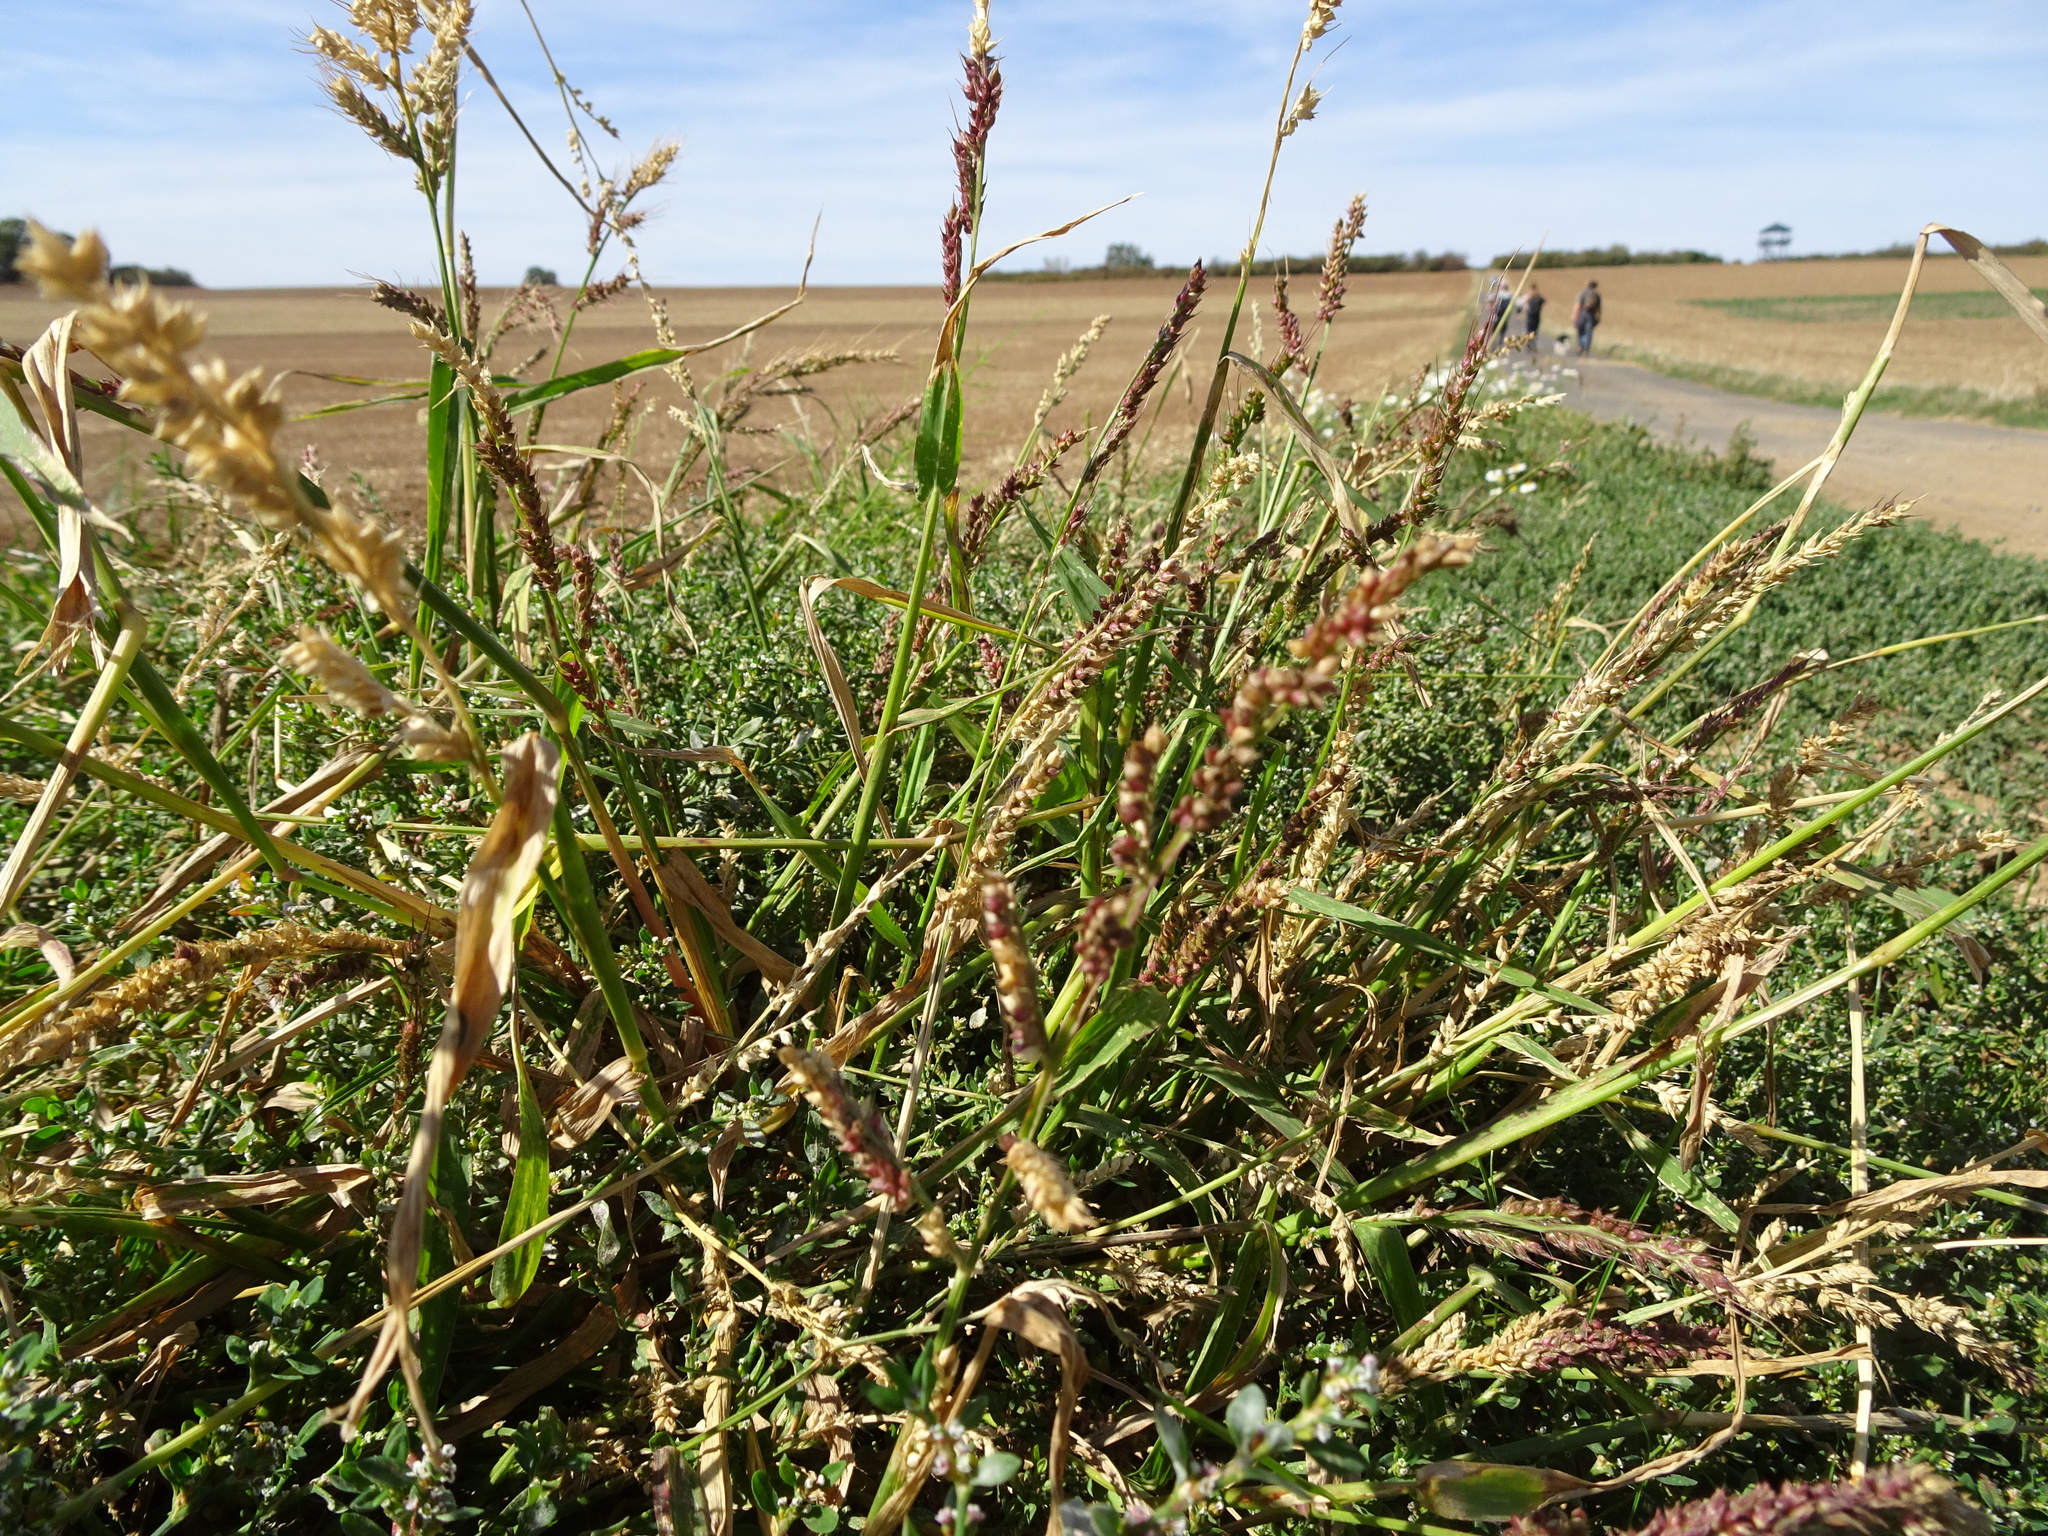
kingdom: Plantae
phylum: Tracheophyta
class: Liliopsida
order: Poales
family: Poaceae
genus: Echinochloa
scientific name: Echinochloa crus-galli
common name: Cockspur
